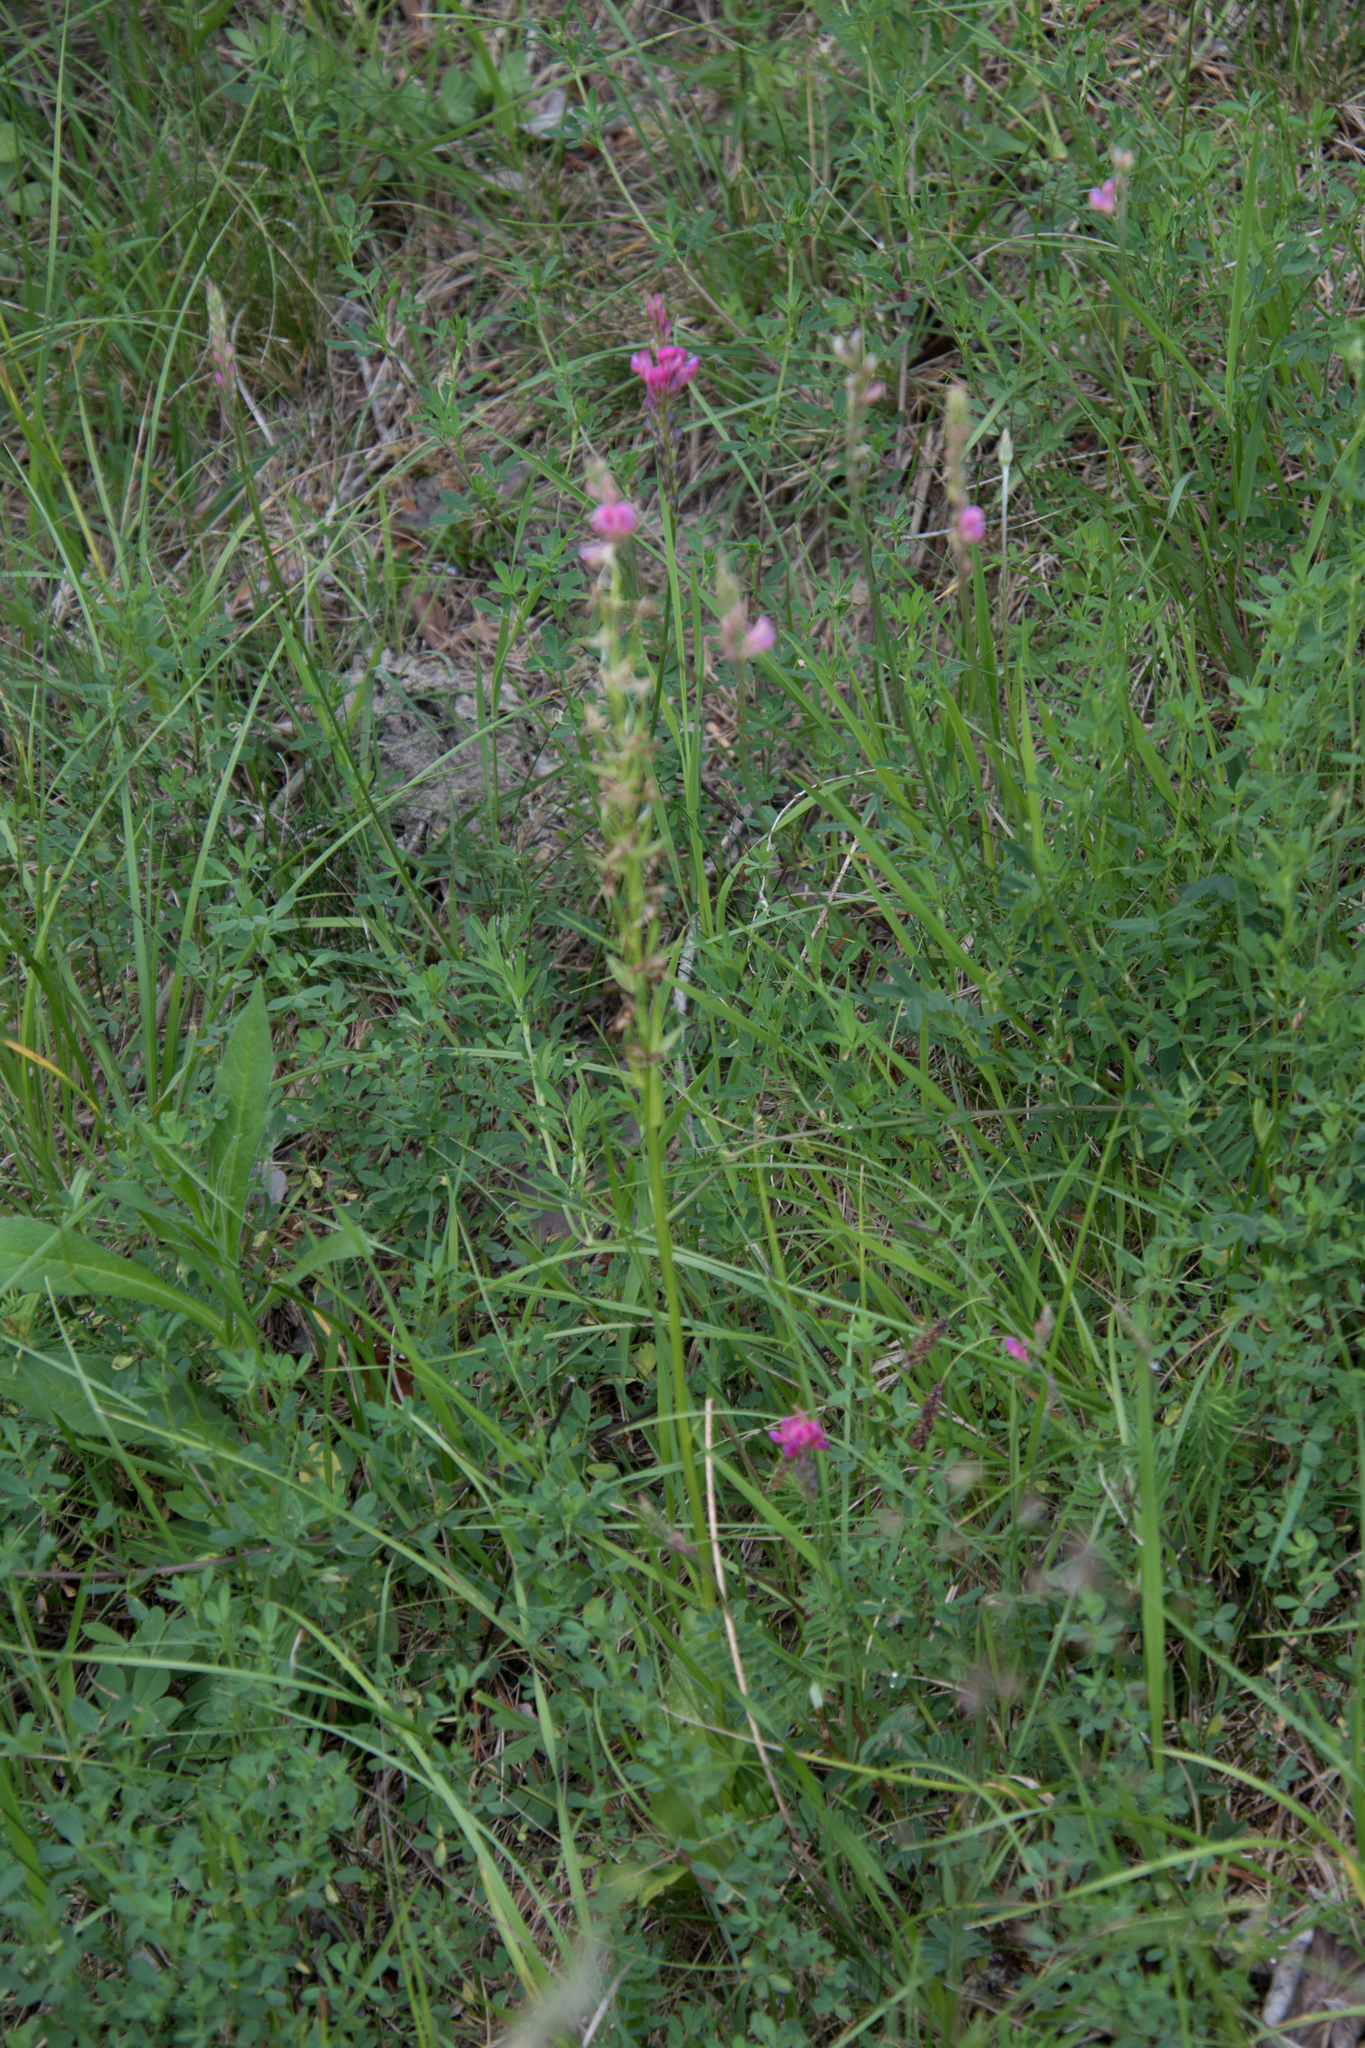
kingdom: Plantae
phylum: Tracheophyta
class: Liliopsida
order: Asparagales
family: Orchidaceae
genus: Platanthera
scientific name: Platanthera bifolia
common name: Lesser butterfly-orchid
